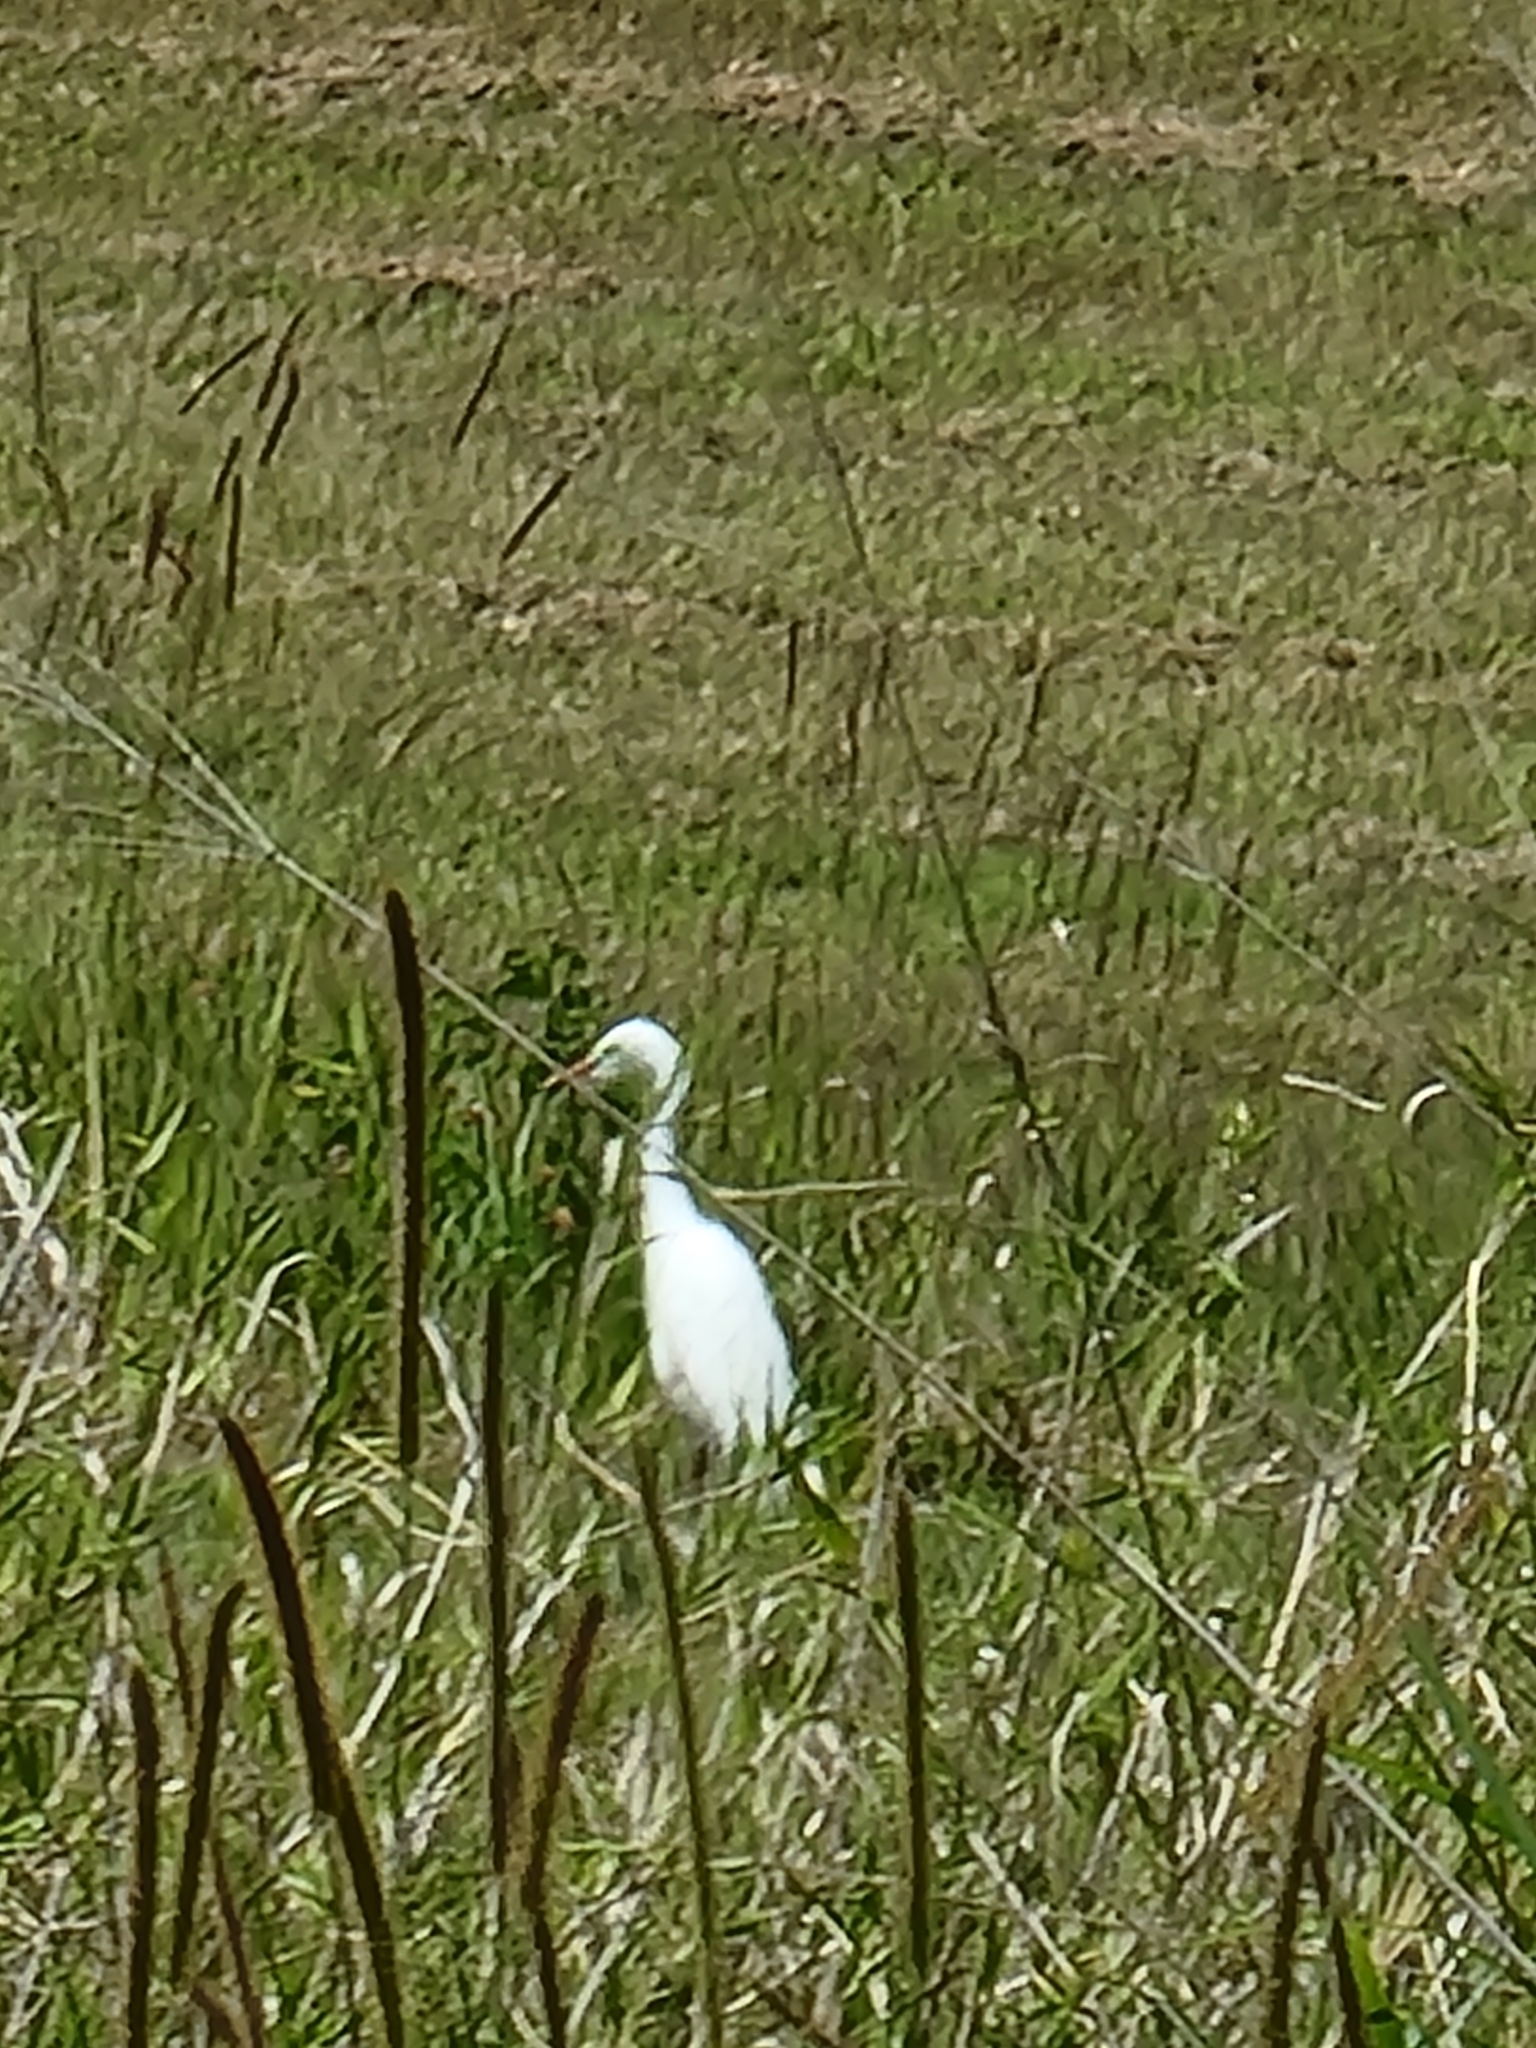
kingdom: Animalia
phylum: Chordata
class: Aves
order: Pelecaniformes
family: Ardeidae
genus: Egretta
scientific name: Egretta intermedia
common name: Intermediate egret
